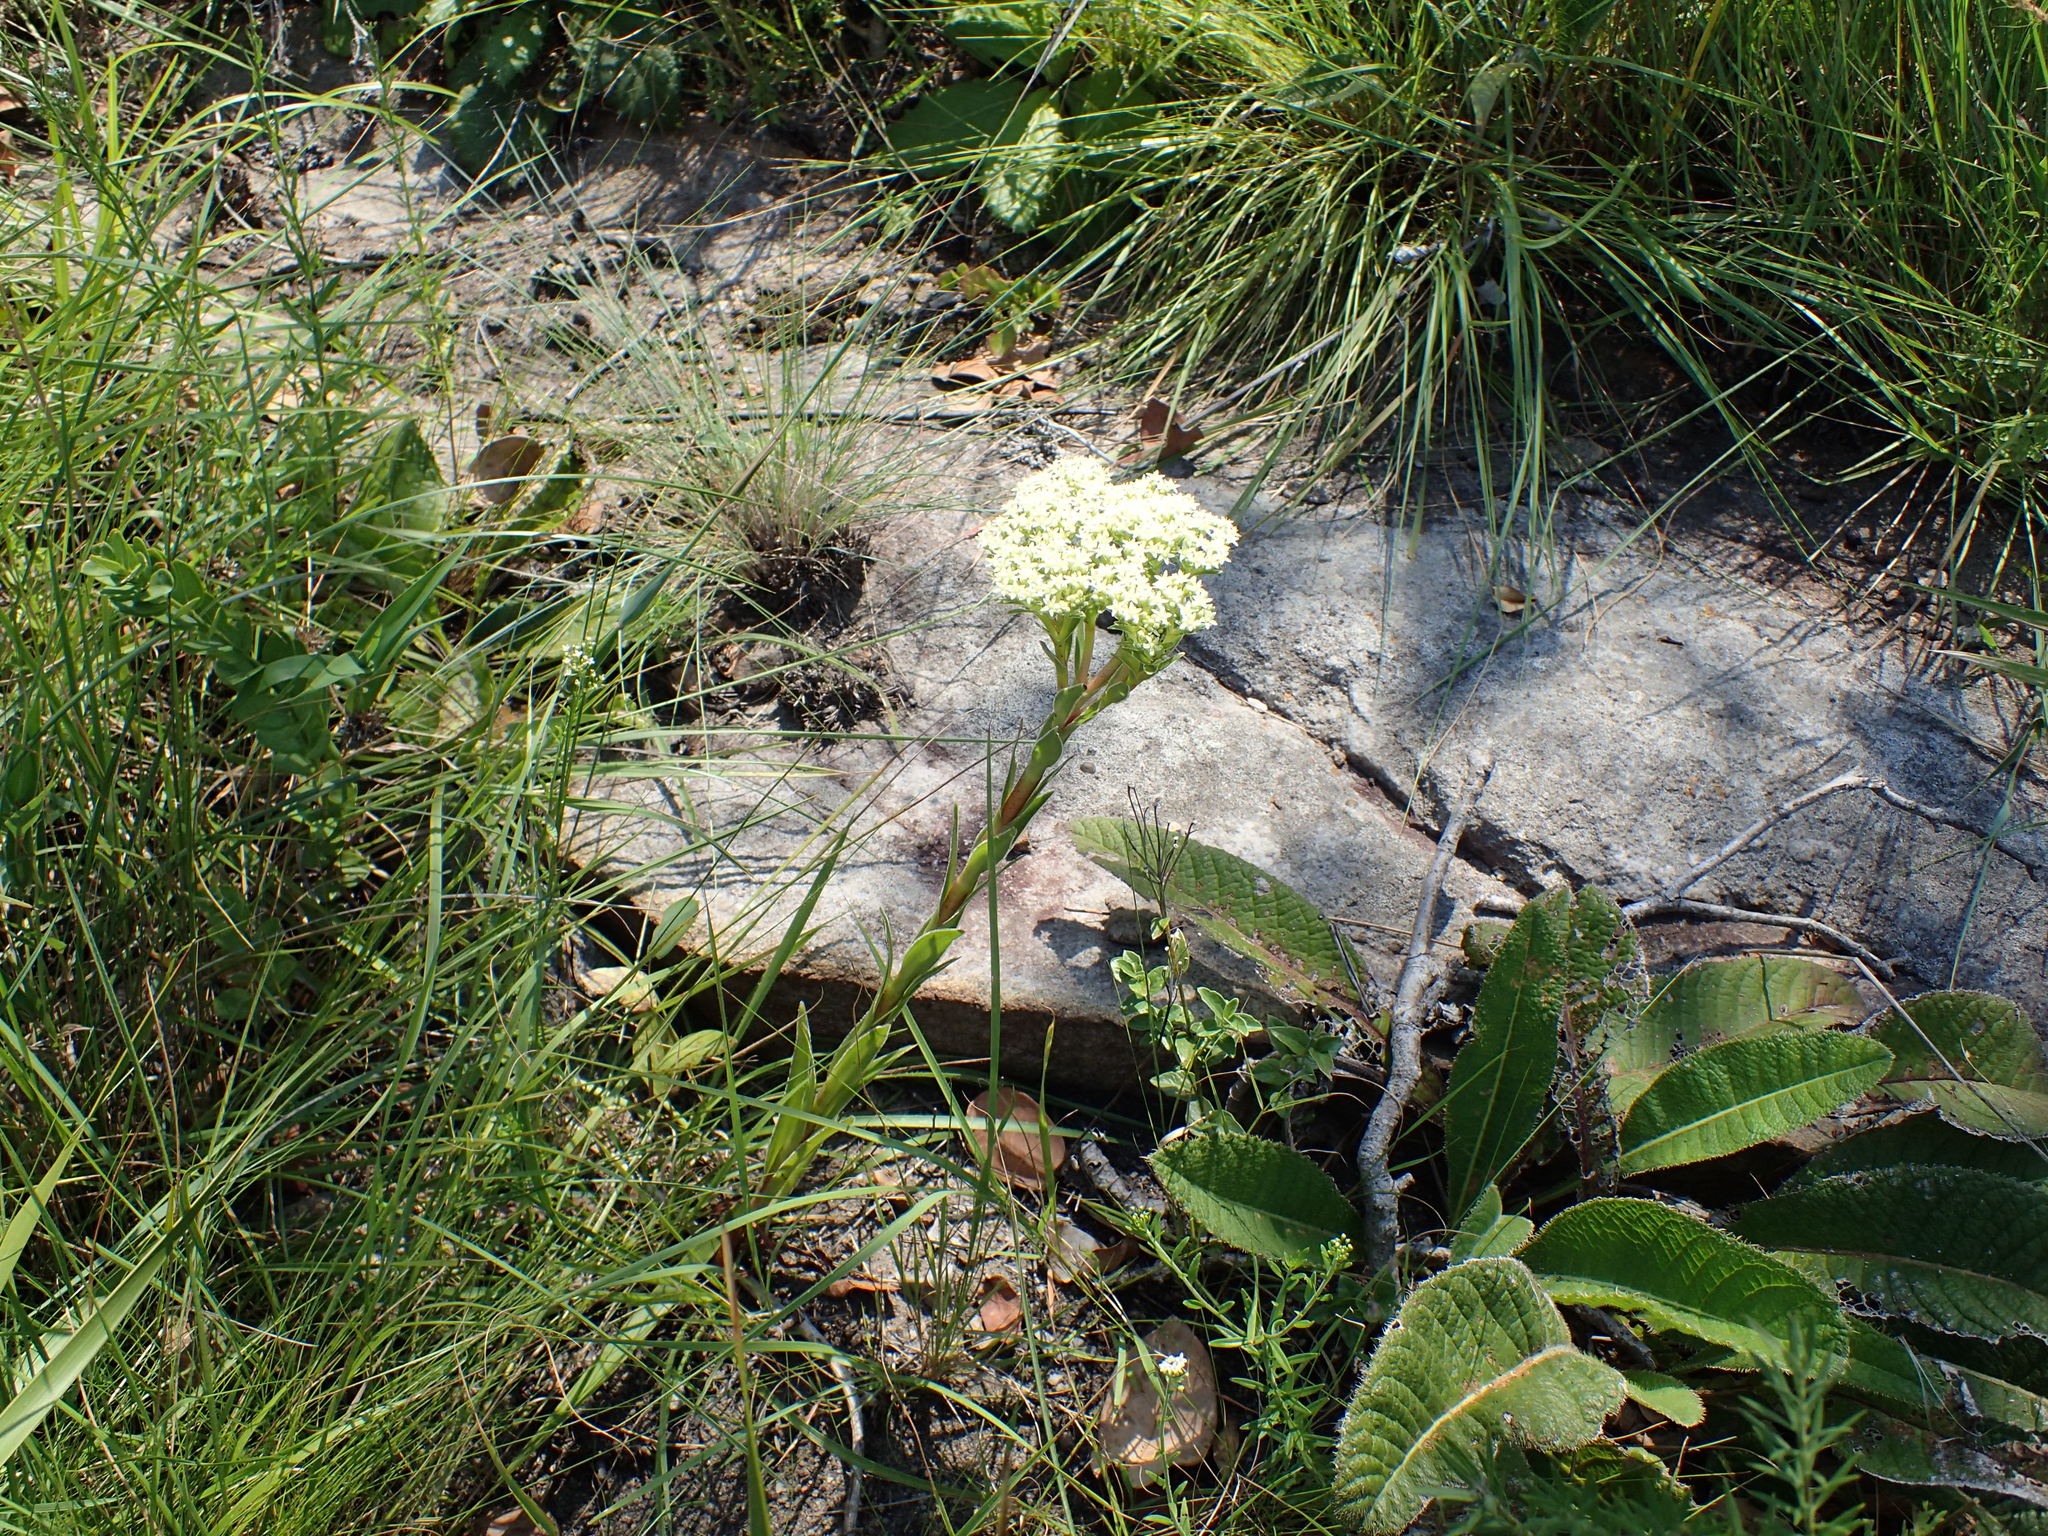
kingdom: Plantae
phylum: Tracheophyta
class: Magnoliopsida
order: Saxifragales
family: Crassulaceae
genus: Crassula
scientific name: Crassula vaginata
